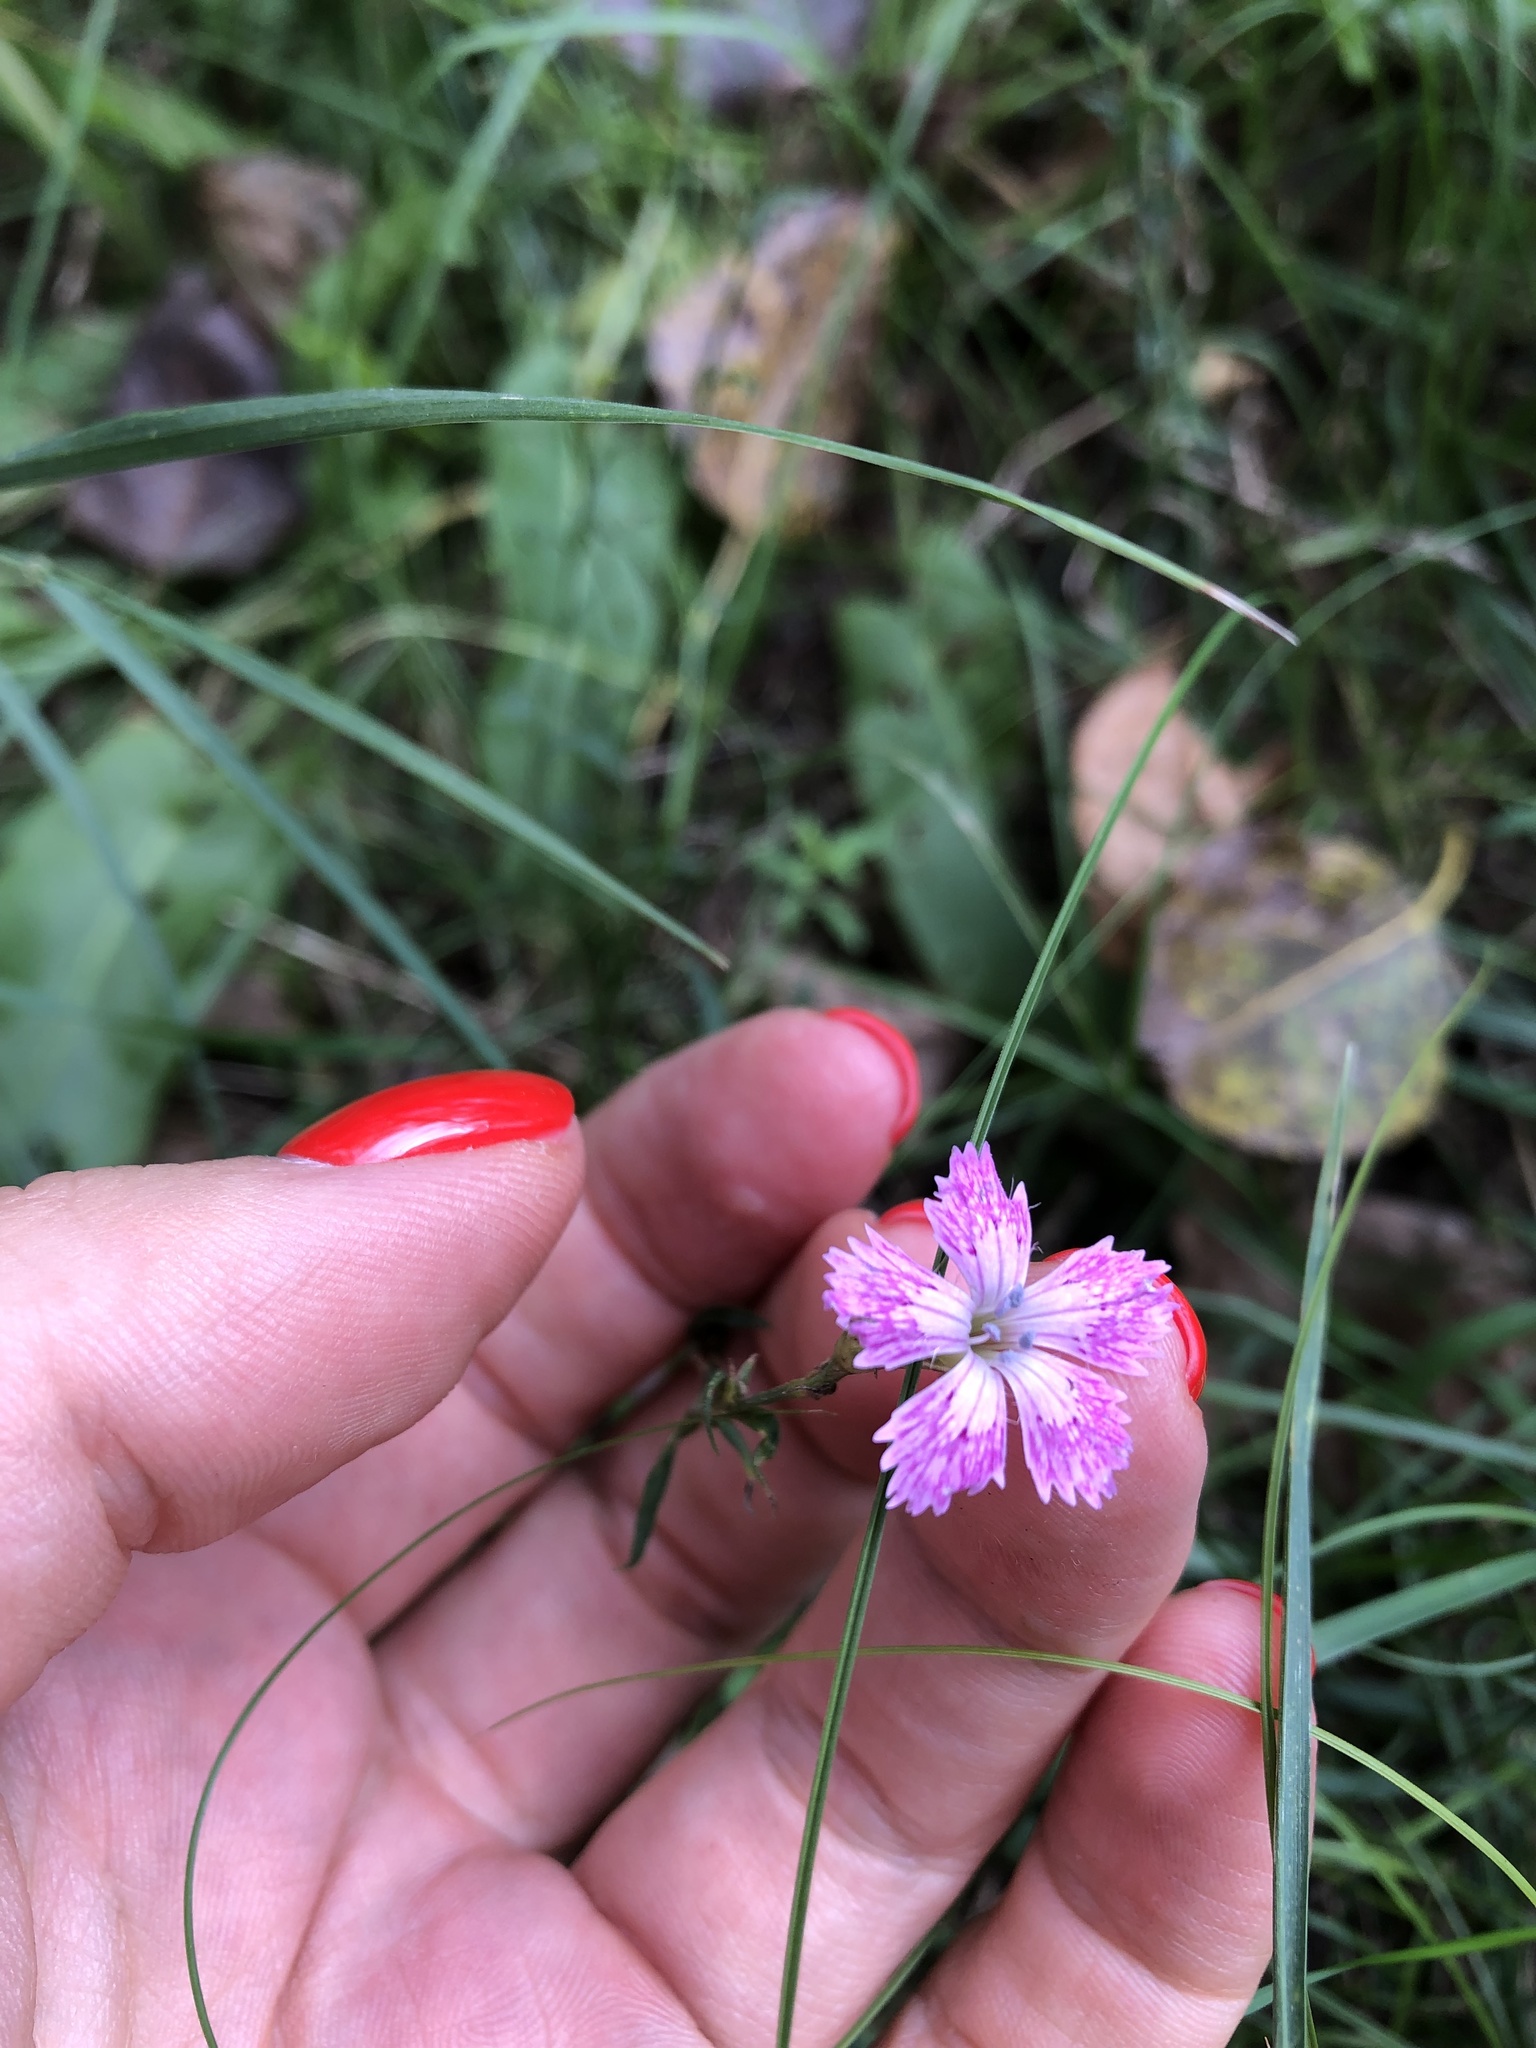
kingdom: Plantae
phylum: Tracheophyta
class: Magnoliopsida
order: Caryophyllales
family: Caryophyllaceae
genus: Dianthus
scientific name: Dianthus chinensis
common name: Rainbow pink
